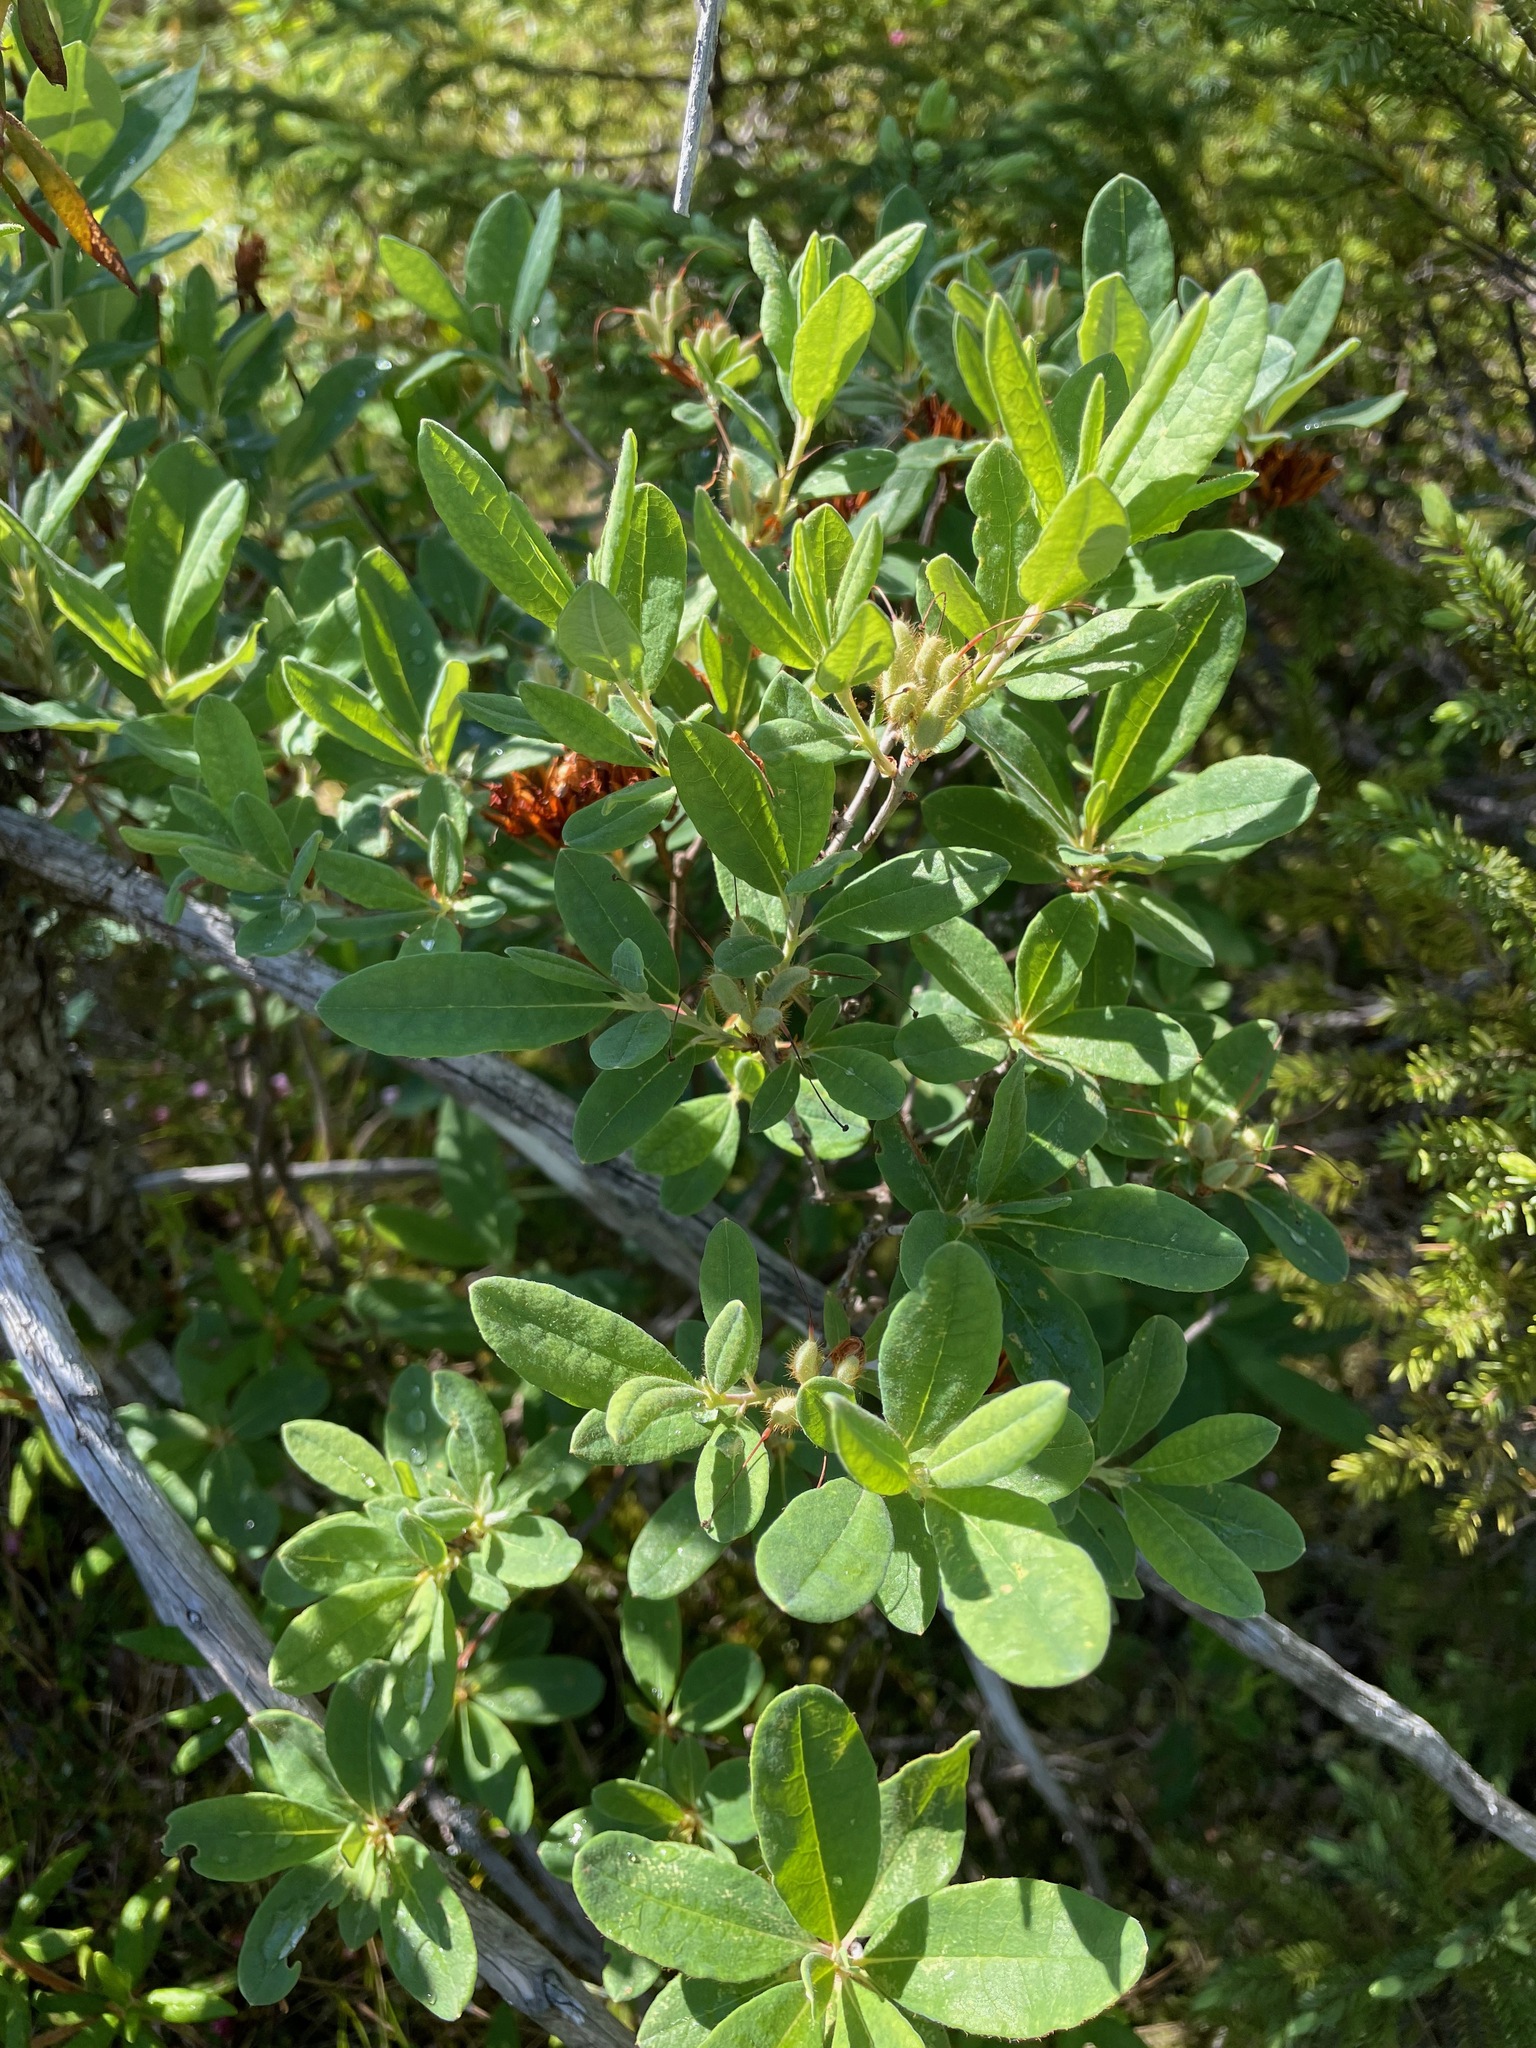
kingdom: Plantae
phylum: Tracheophyta
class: Magnoliopsida
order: Ericales
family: Ericaceae
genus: Rhododendron
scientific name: Rhododendron canadense
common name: Rhodora
